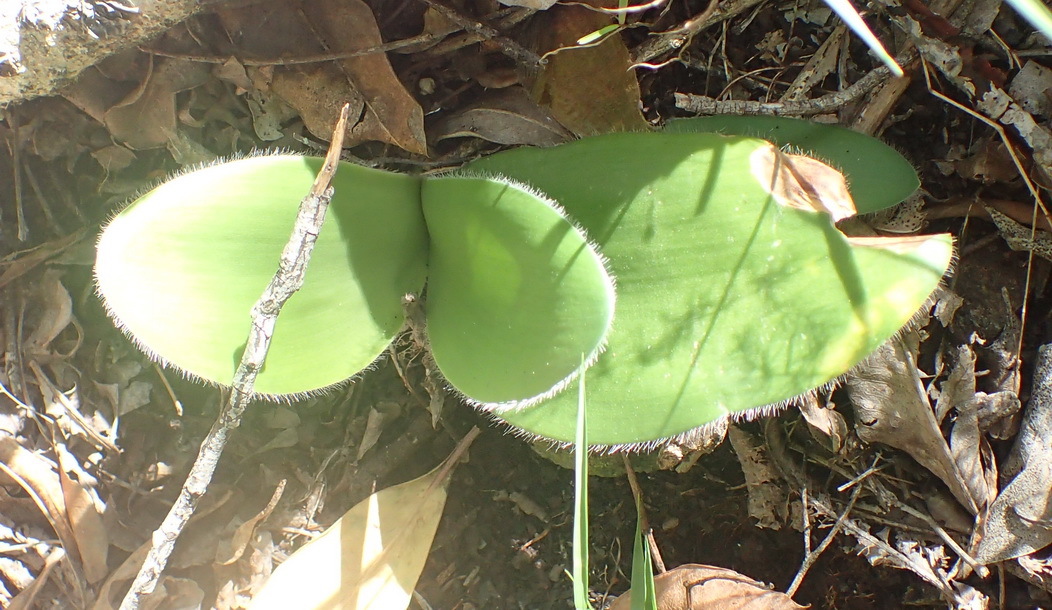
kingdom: Plantae
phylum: Tracheophyta
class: Liliopsida
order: Asparagales
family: Amaryllidaceae
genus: Haemanthus
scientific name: Haemanthus albiflos
